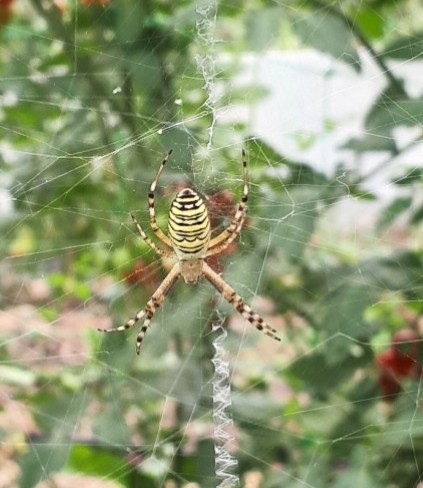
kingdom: Animalia
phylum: Arthropoda
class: Arachnida
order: Araneae
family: Araneidae
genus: Argiope
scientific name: Argiope bruennichi
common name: Wasp spider
